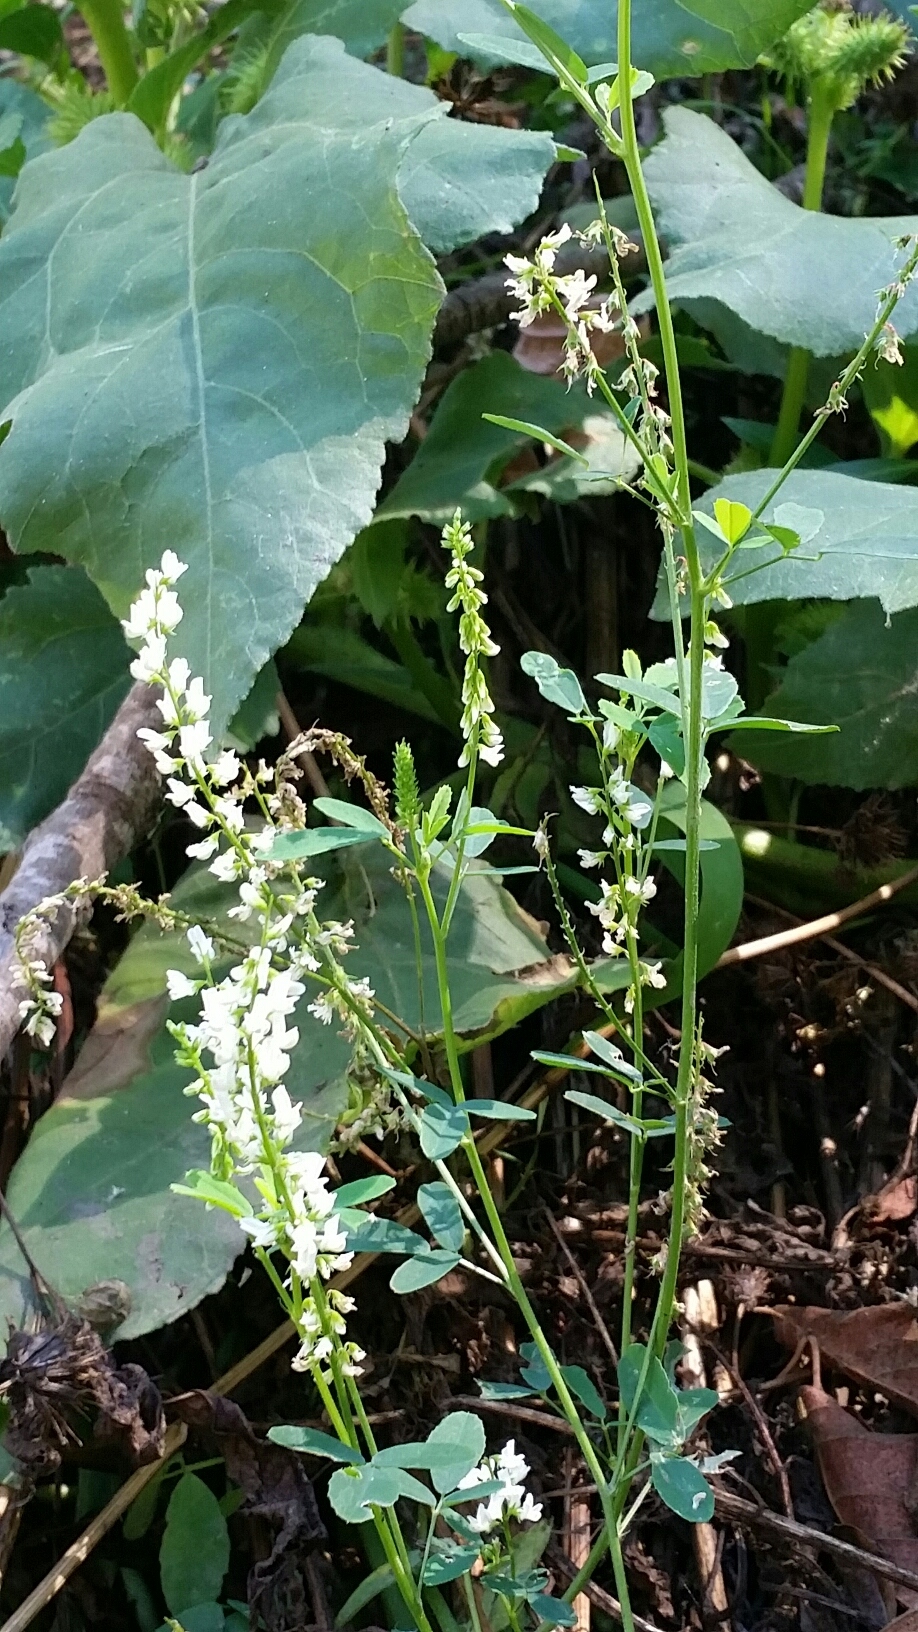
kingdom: Plantae
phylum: Tracheophyta
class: Magnoliopsida
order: Fabales
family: Fabaceae
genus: Melilotus
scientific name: Melilotus albus
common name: White melilot
